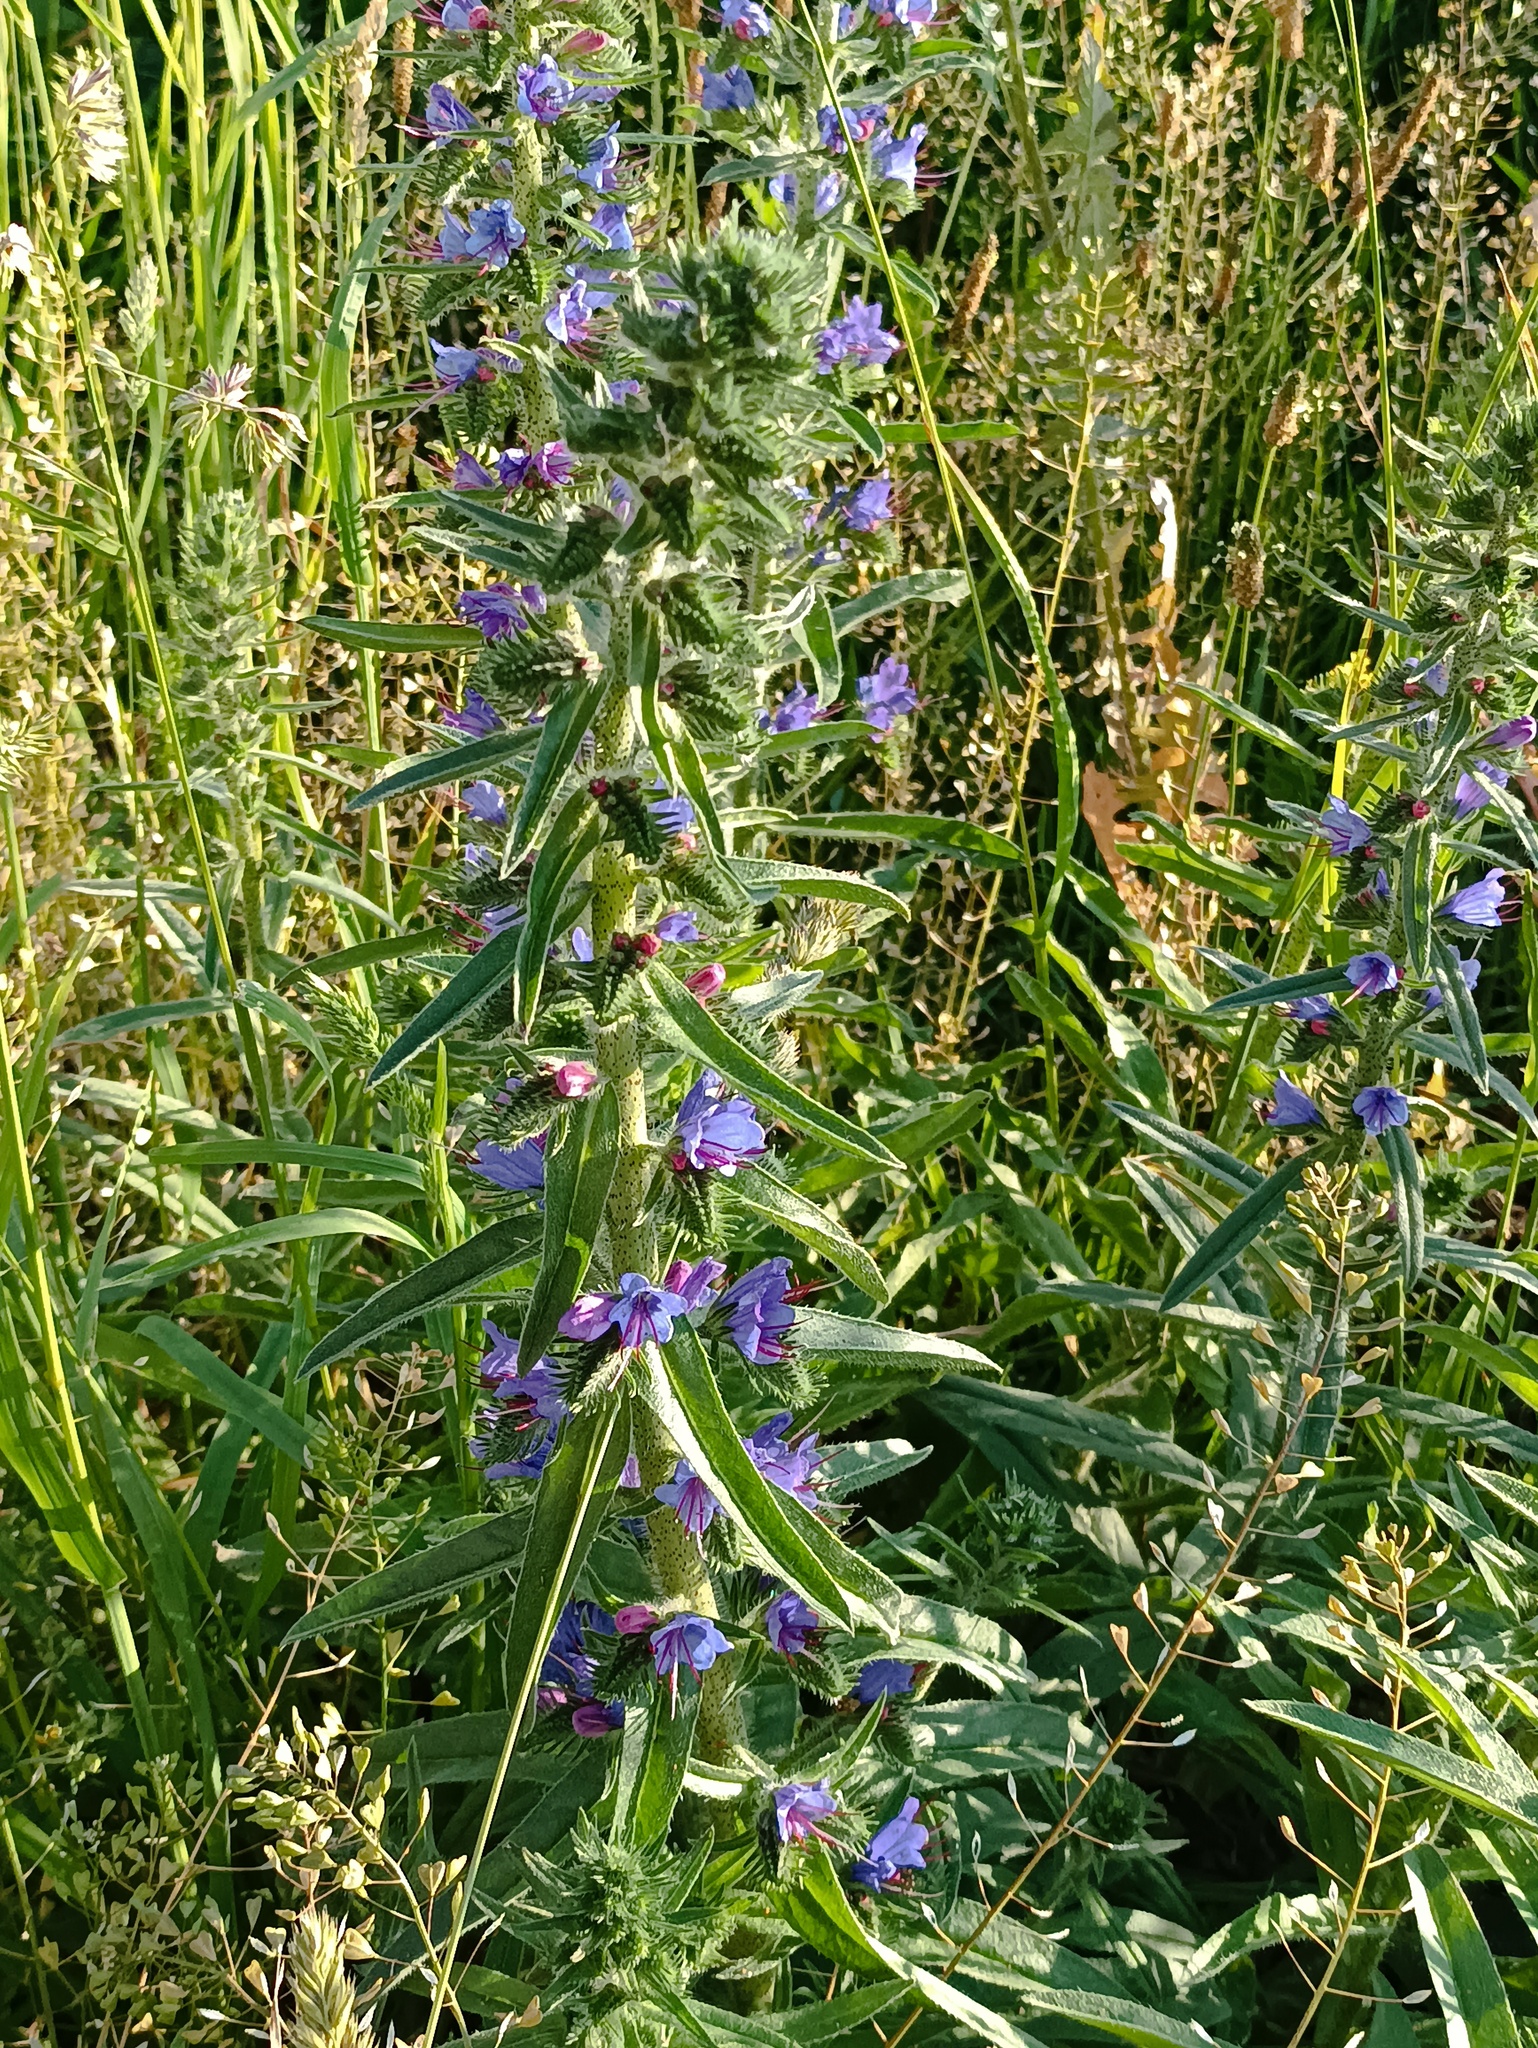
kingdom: Plantae
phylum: Tracheophyta
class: Magnoliopsida
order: Boraginales
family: Boraginaceae
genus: Echium
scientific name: Echium vulgare
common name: Common viper's bugloss
